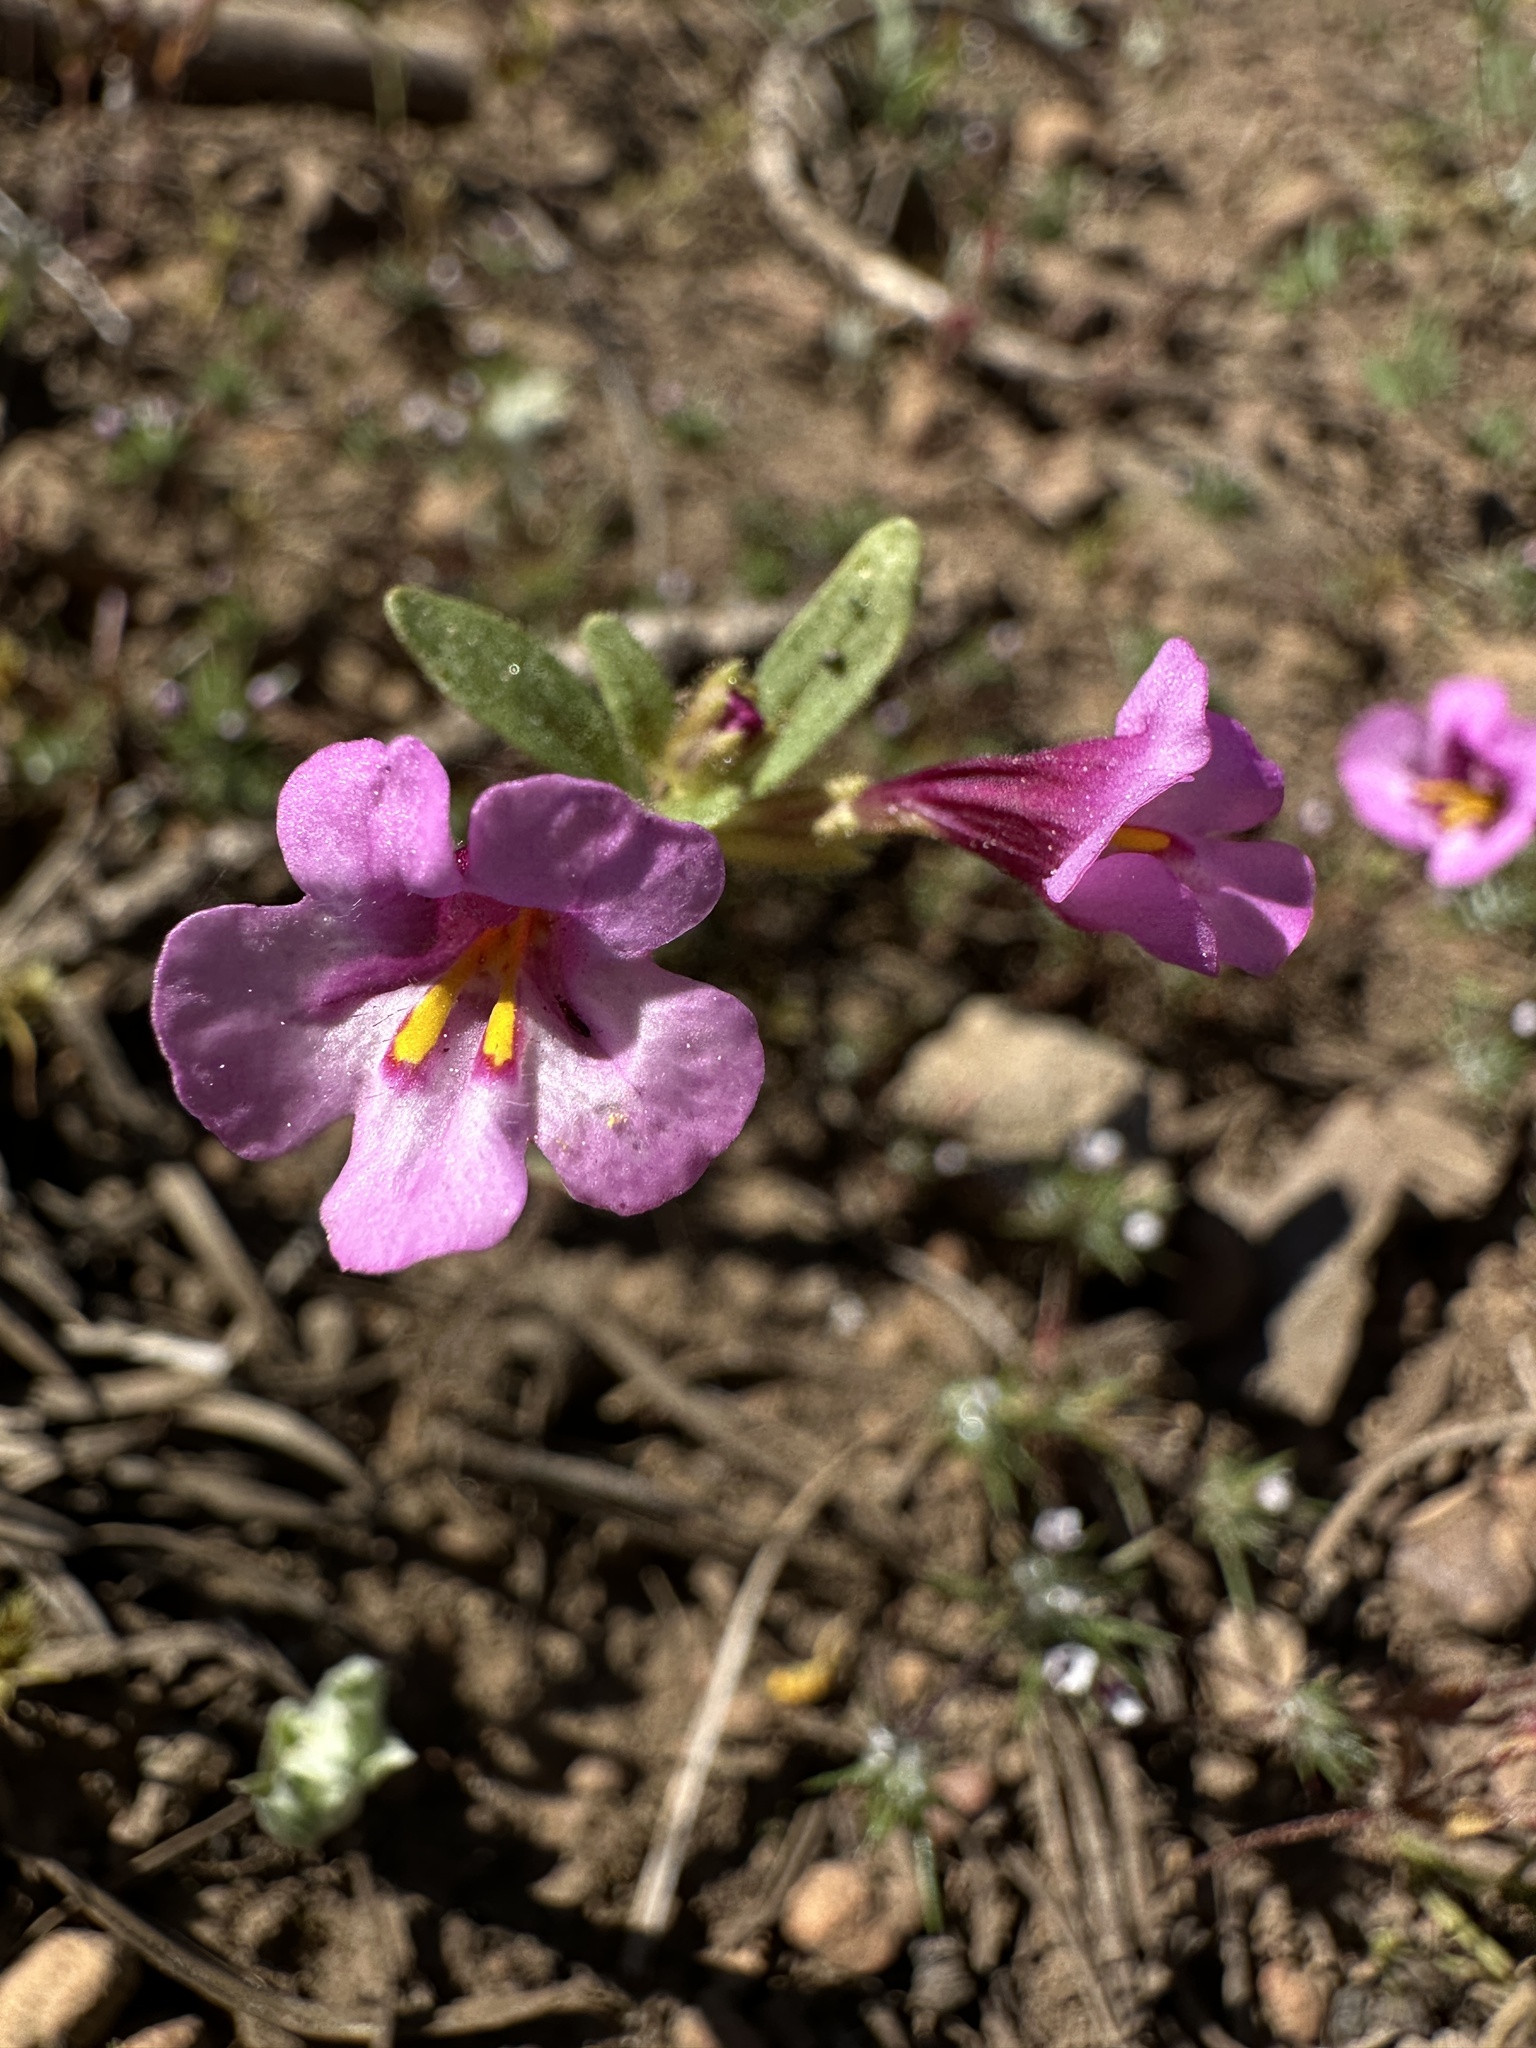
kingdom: Plantae
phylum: Tracheophyta
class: Magnoliopsida
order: Lamiales
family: Phrymaceae
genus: Diplacus
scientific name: Diplacus torreyi
